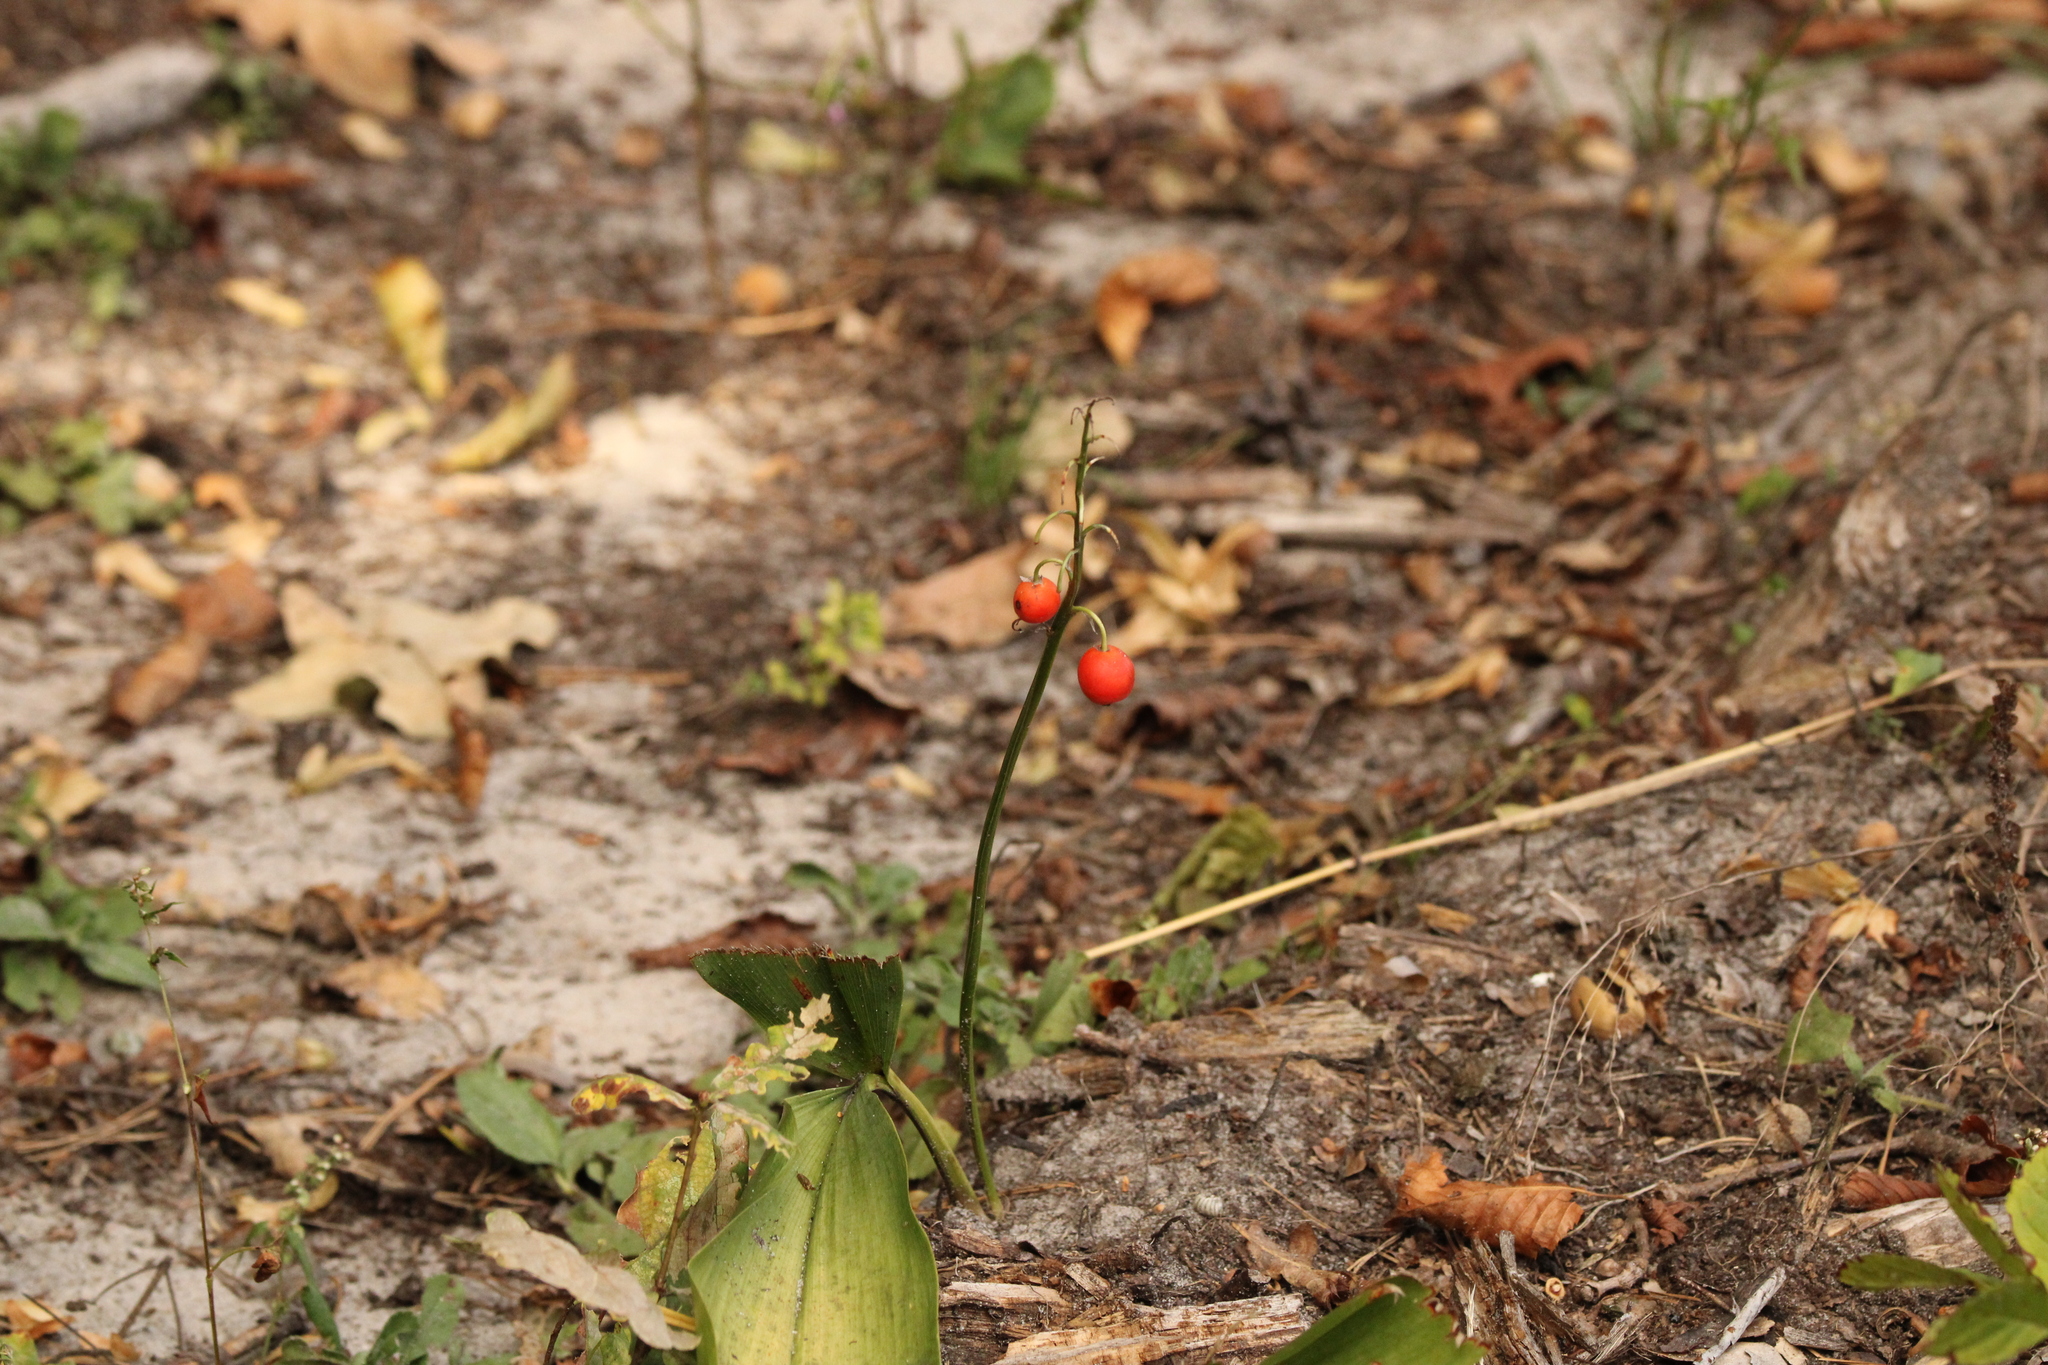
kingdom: Plantae
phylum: Tracheophyta
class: Liliopsida
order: Asparagales
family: Asparagaceae
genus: Convallaria
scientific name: Convallaria majalis
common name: Lily-of-the-valley
